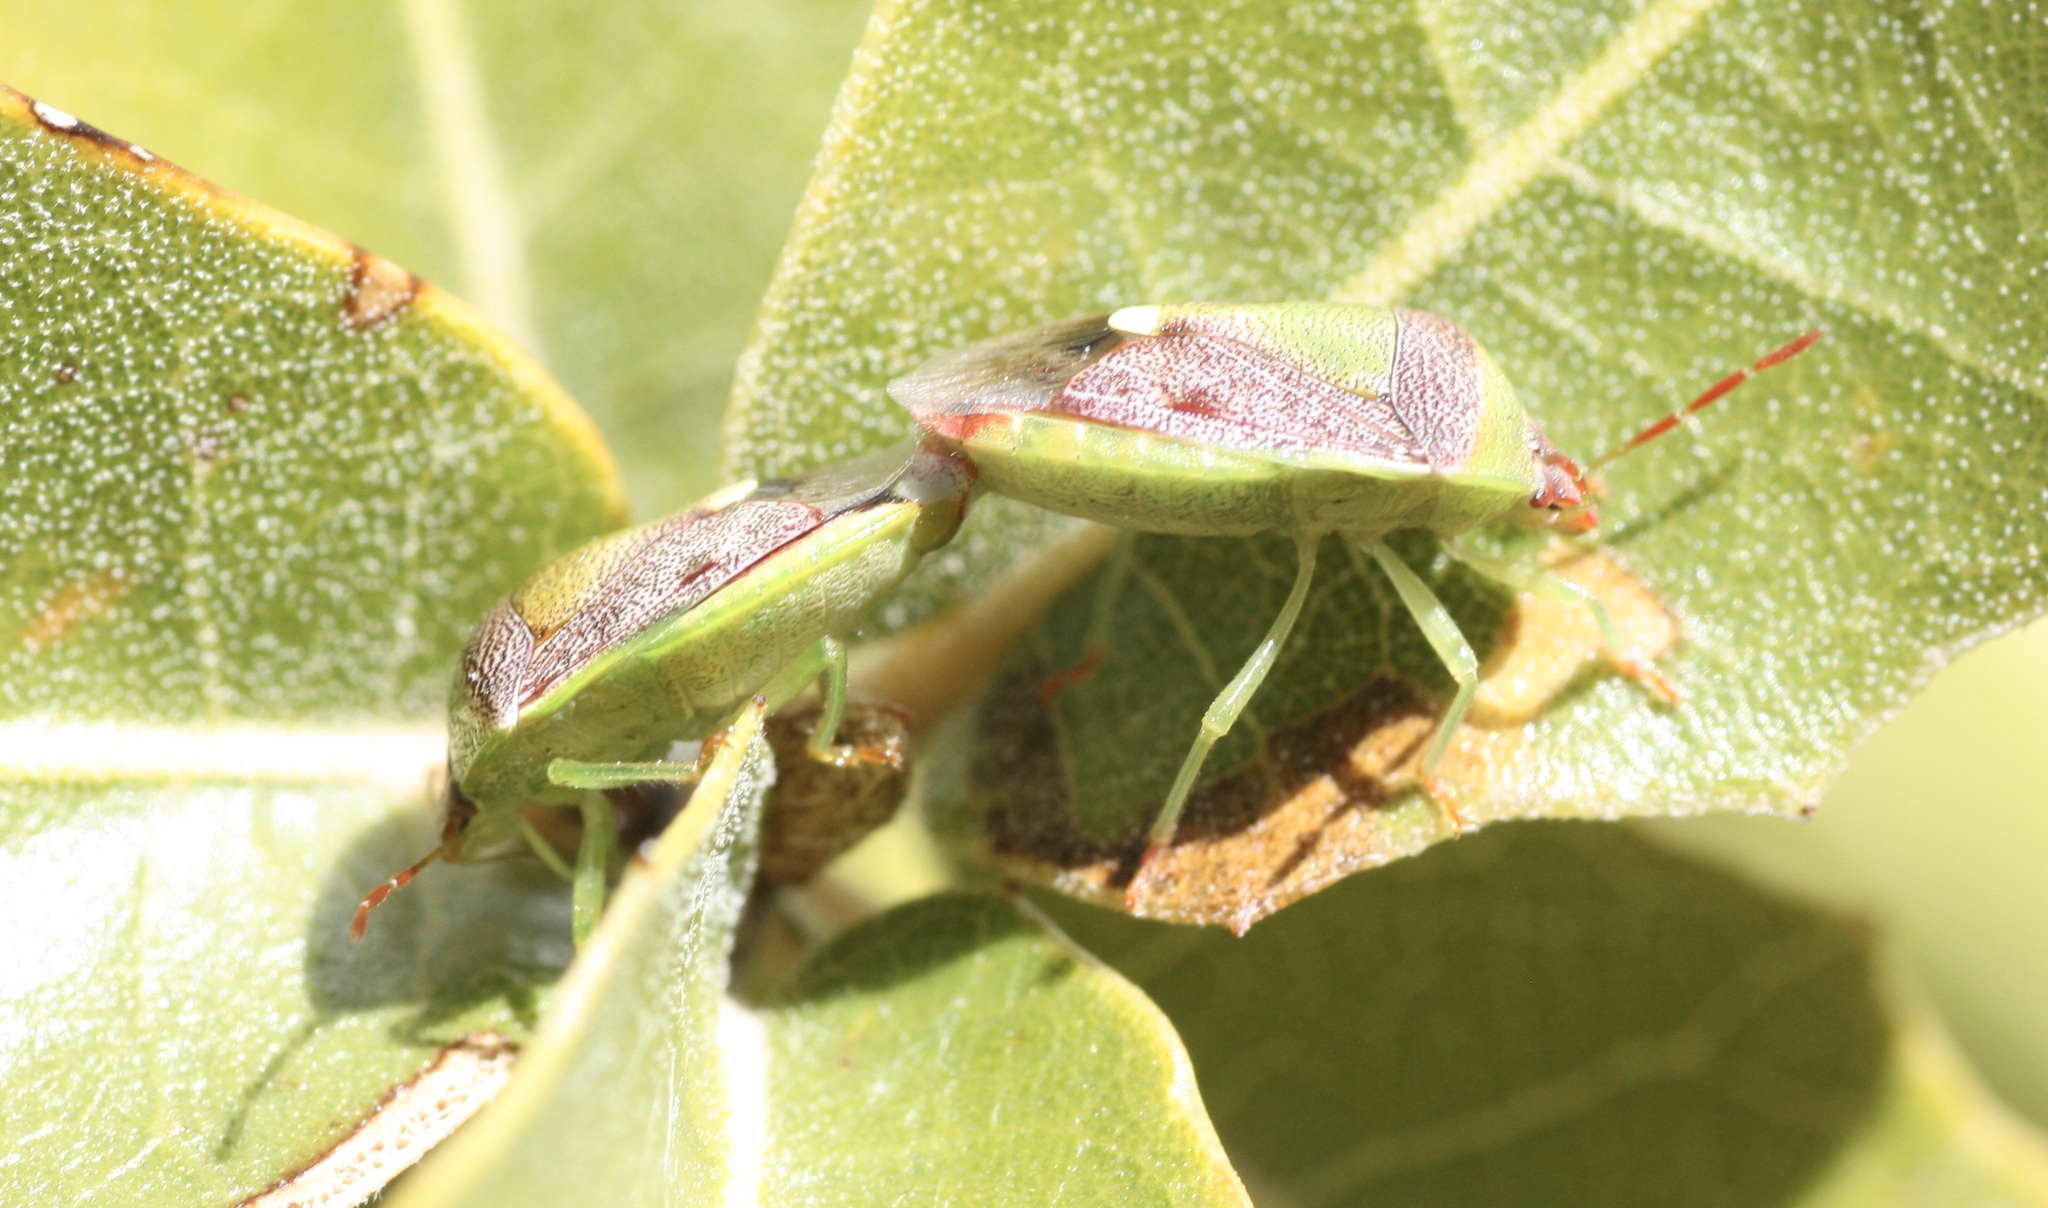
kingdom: Animalia
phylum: Arthropoda
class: Insecta
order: Hemiptera
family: Pentatomidae
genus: Banasa
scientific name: Banasa dimidiata
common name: Green burgundy stink bug
